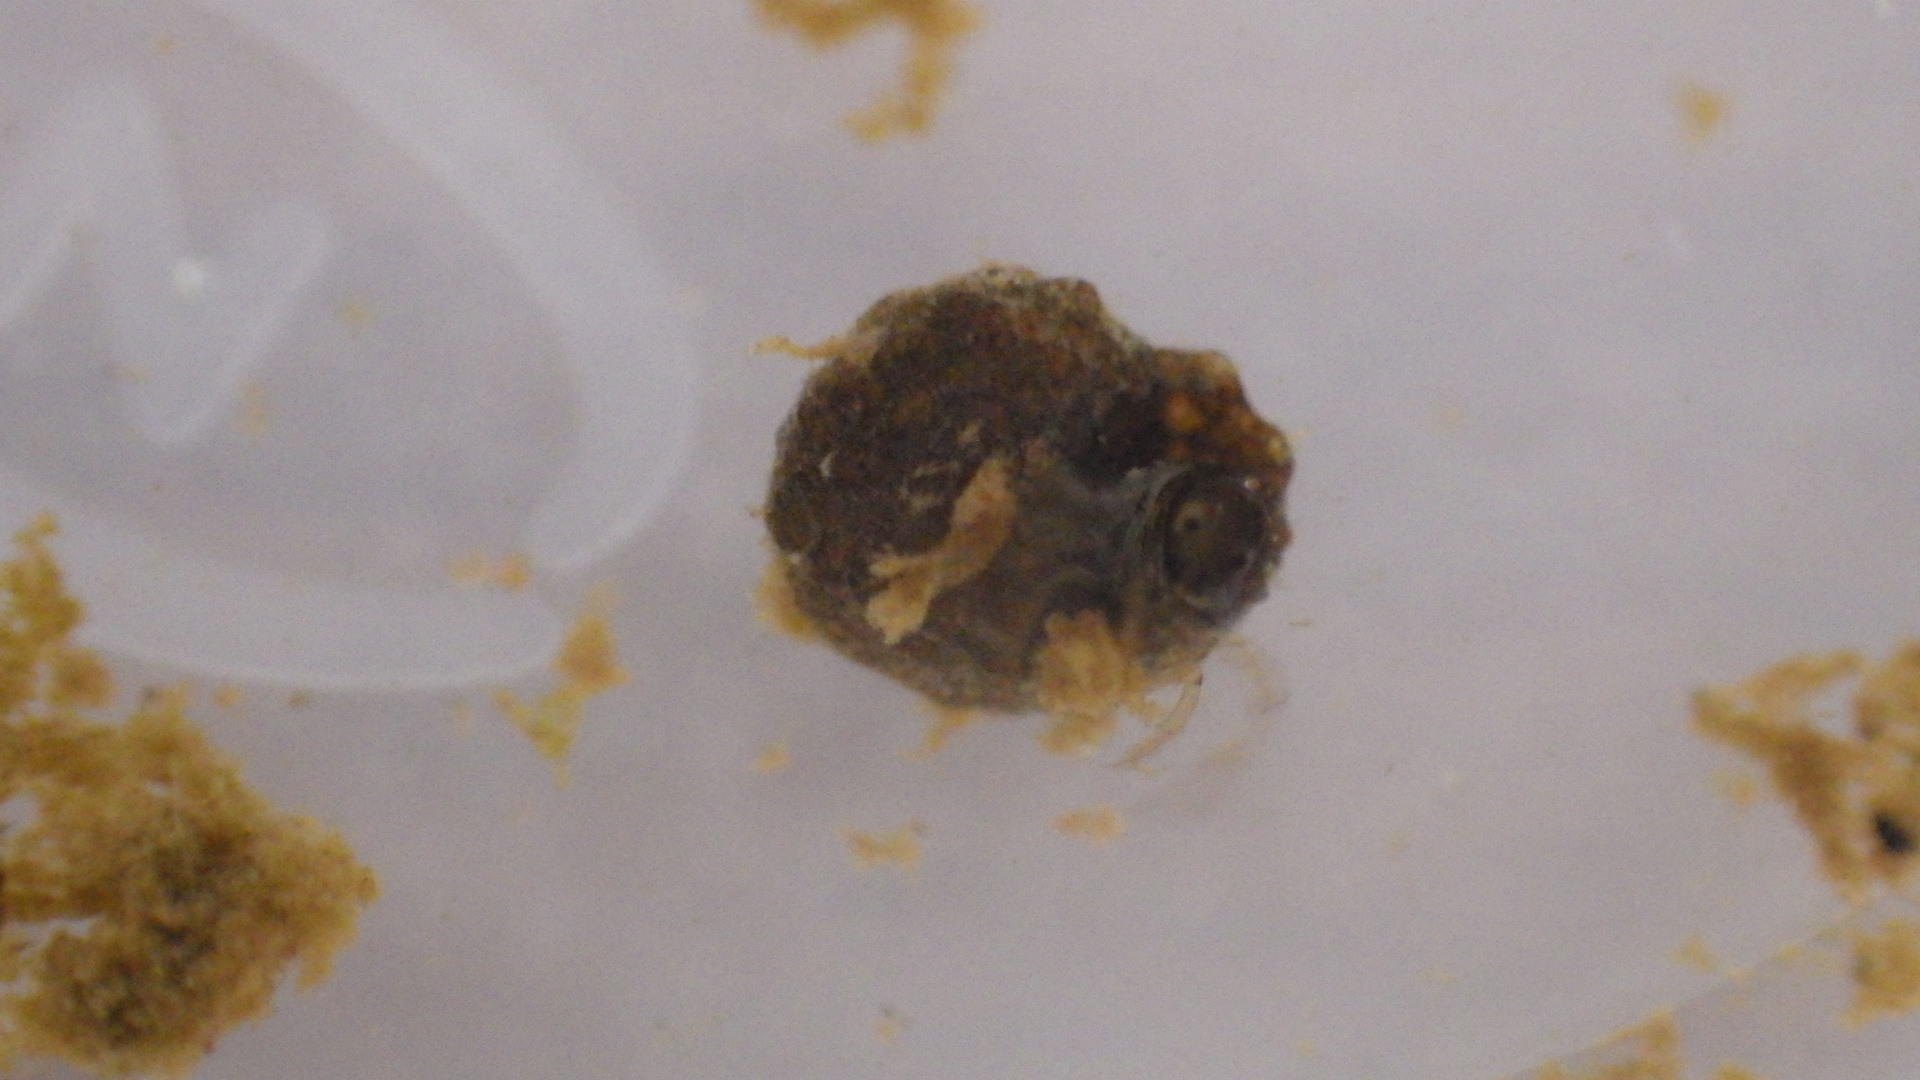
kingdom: Animalia
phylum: Arthropoda
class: Insecta
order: Trichoptera
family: Helicopsychidae
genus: Helicopsyche
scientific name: Helicopsyche borealis
